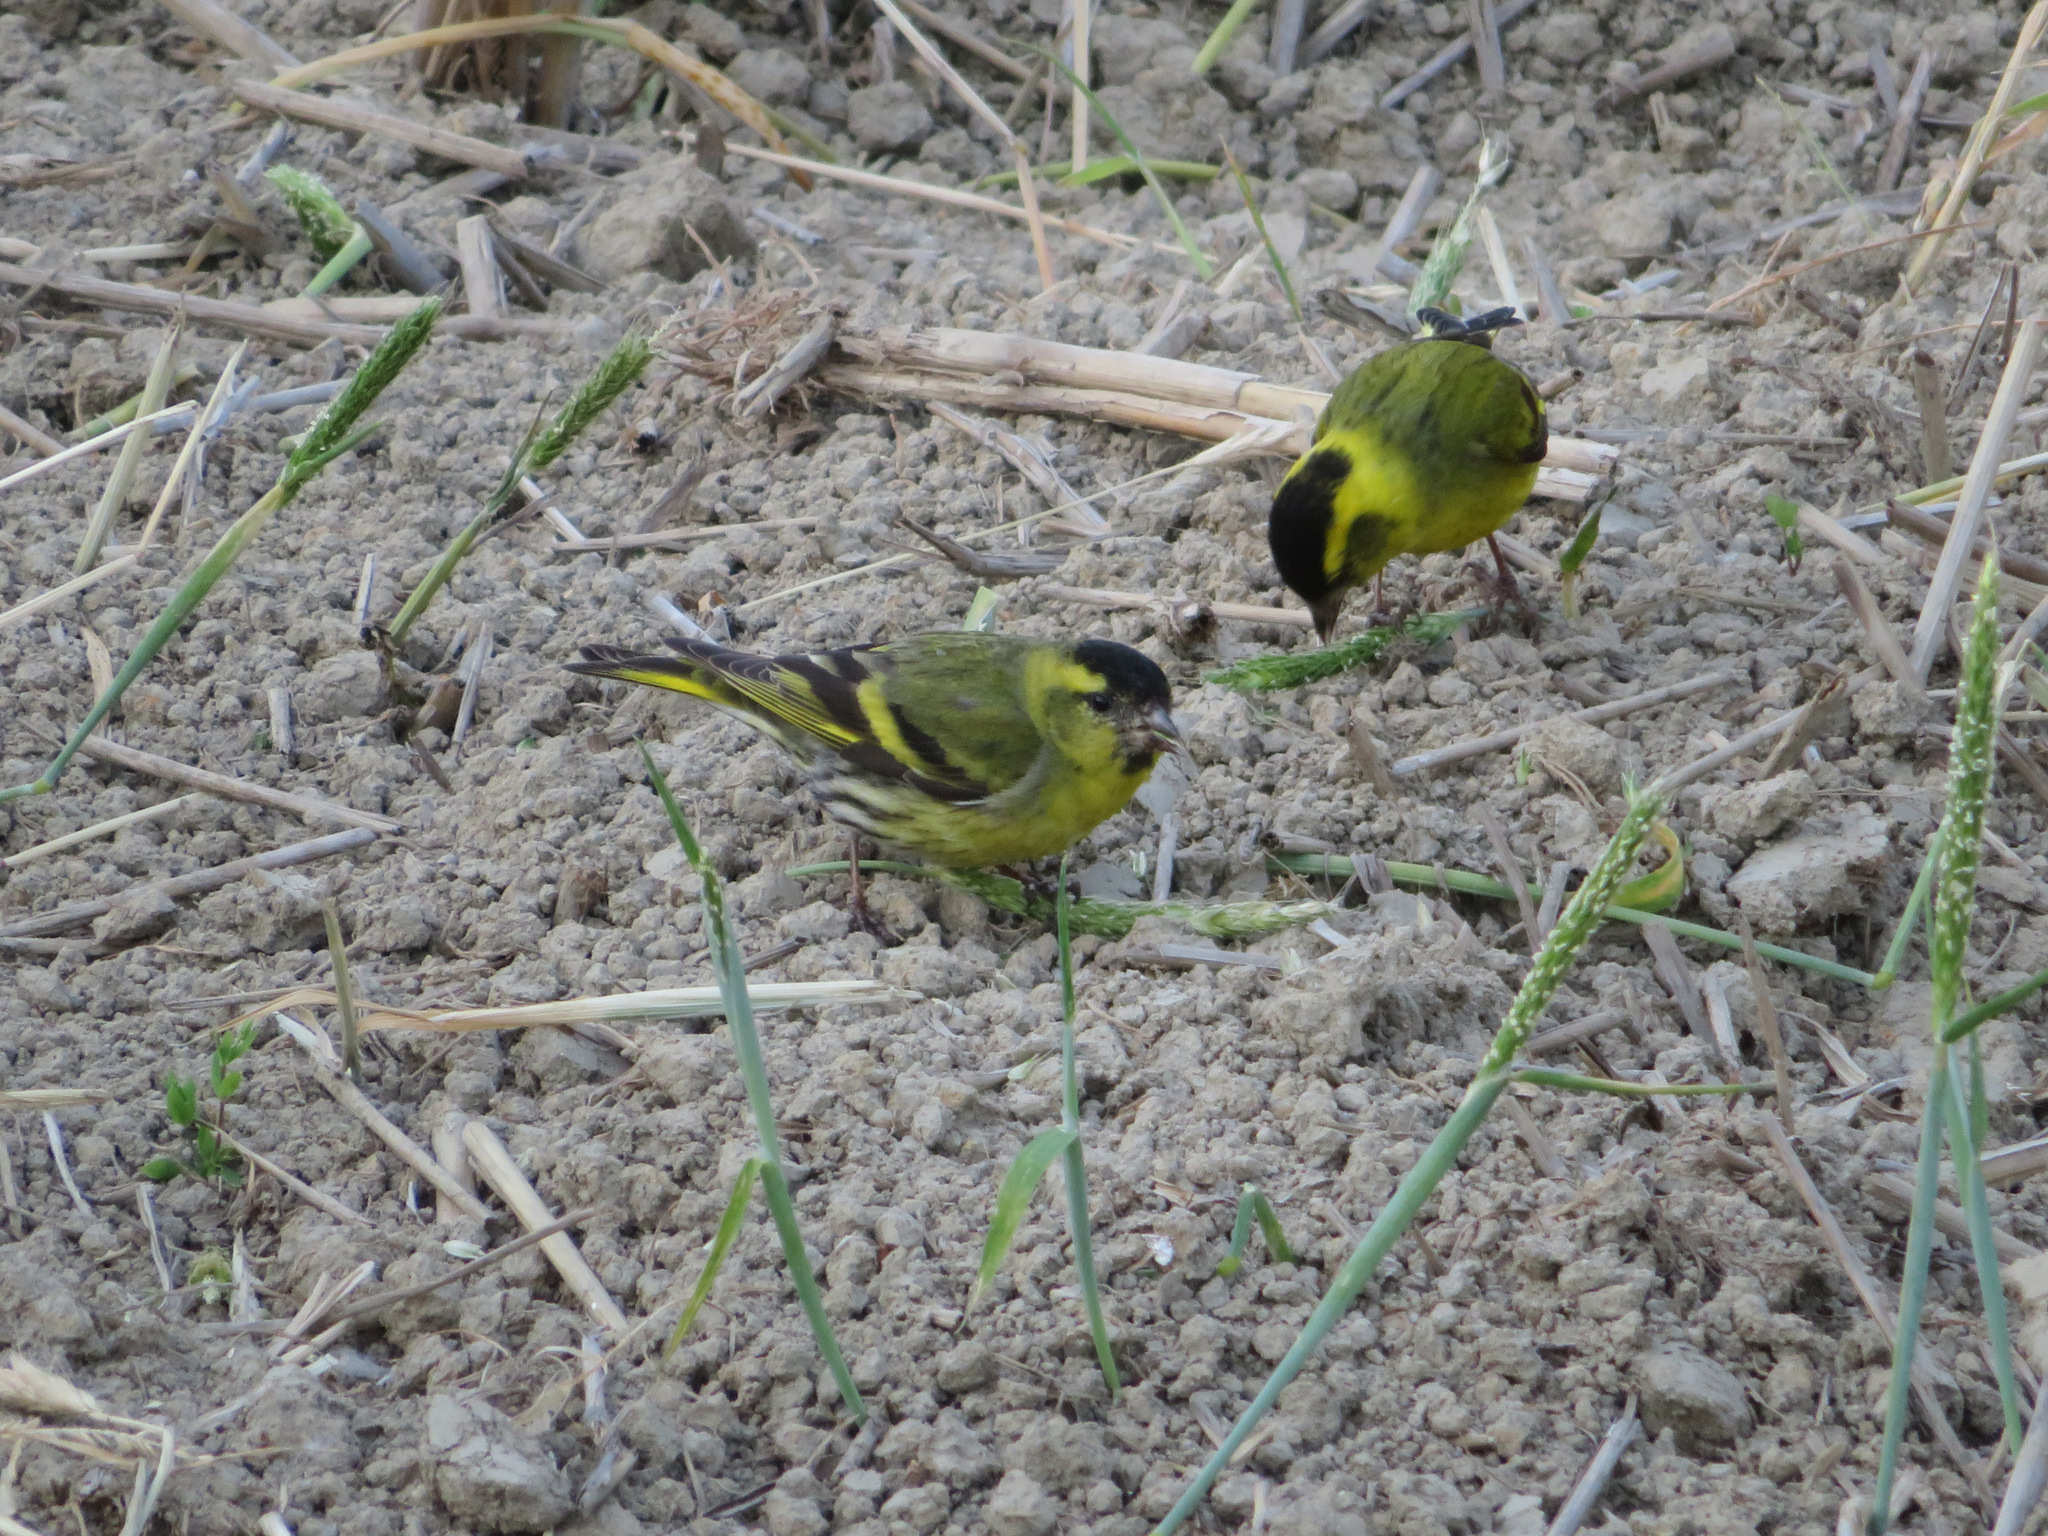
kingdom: Animalia
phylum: Chordata
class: Aves
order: Passeriformes
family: Fringillidae
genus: Spinus
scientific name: Spinus spinus
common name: Eurasian siskin
